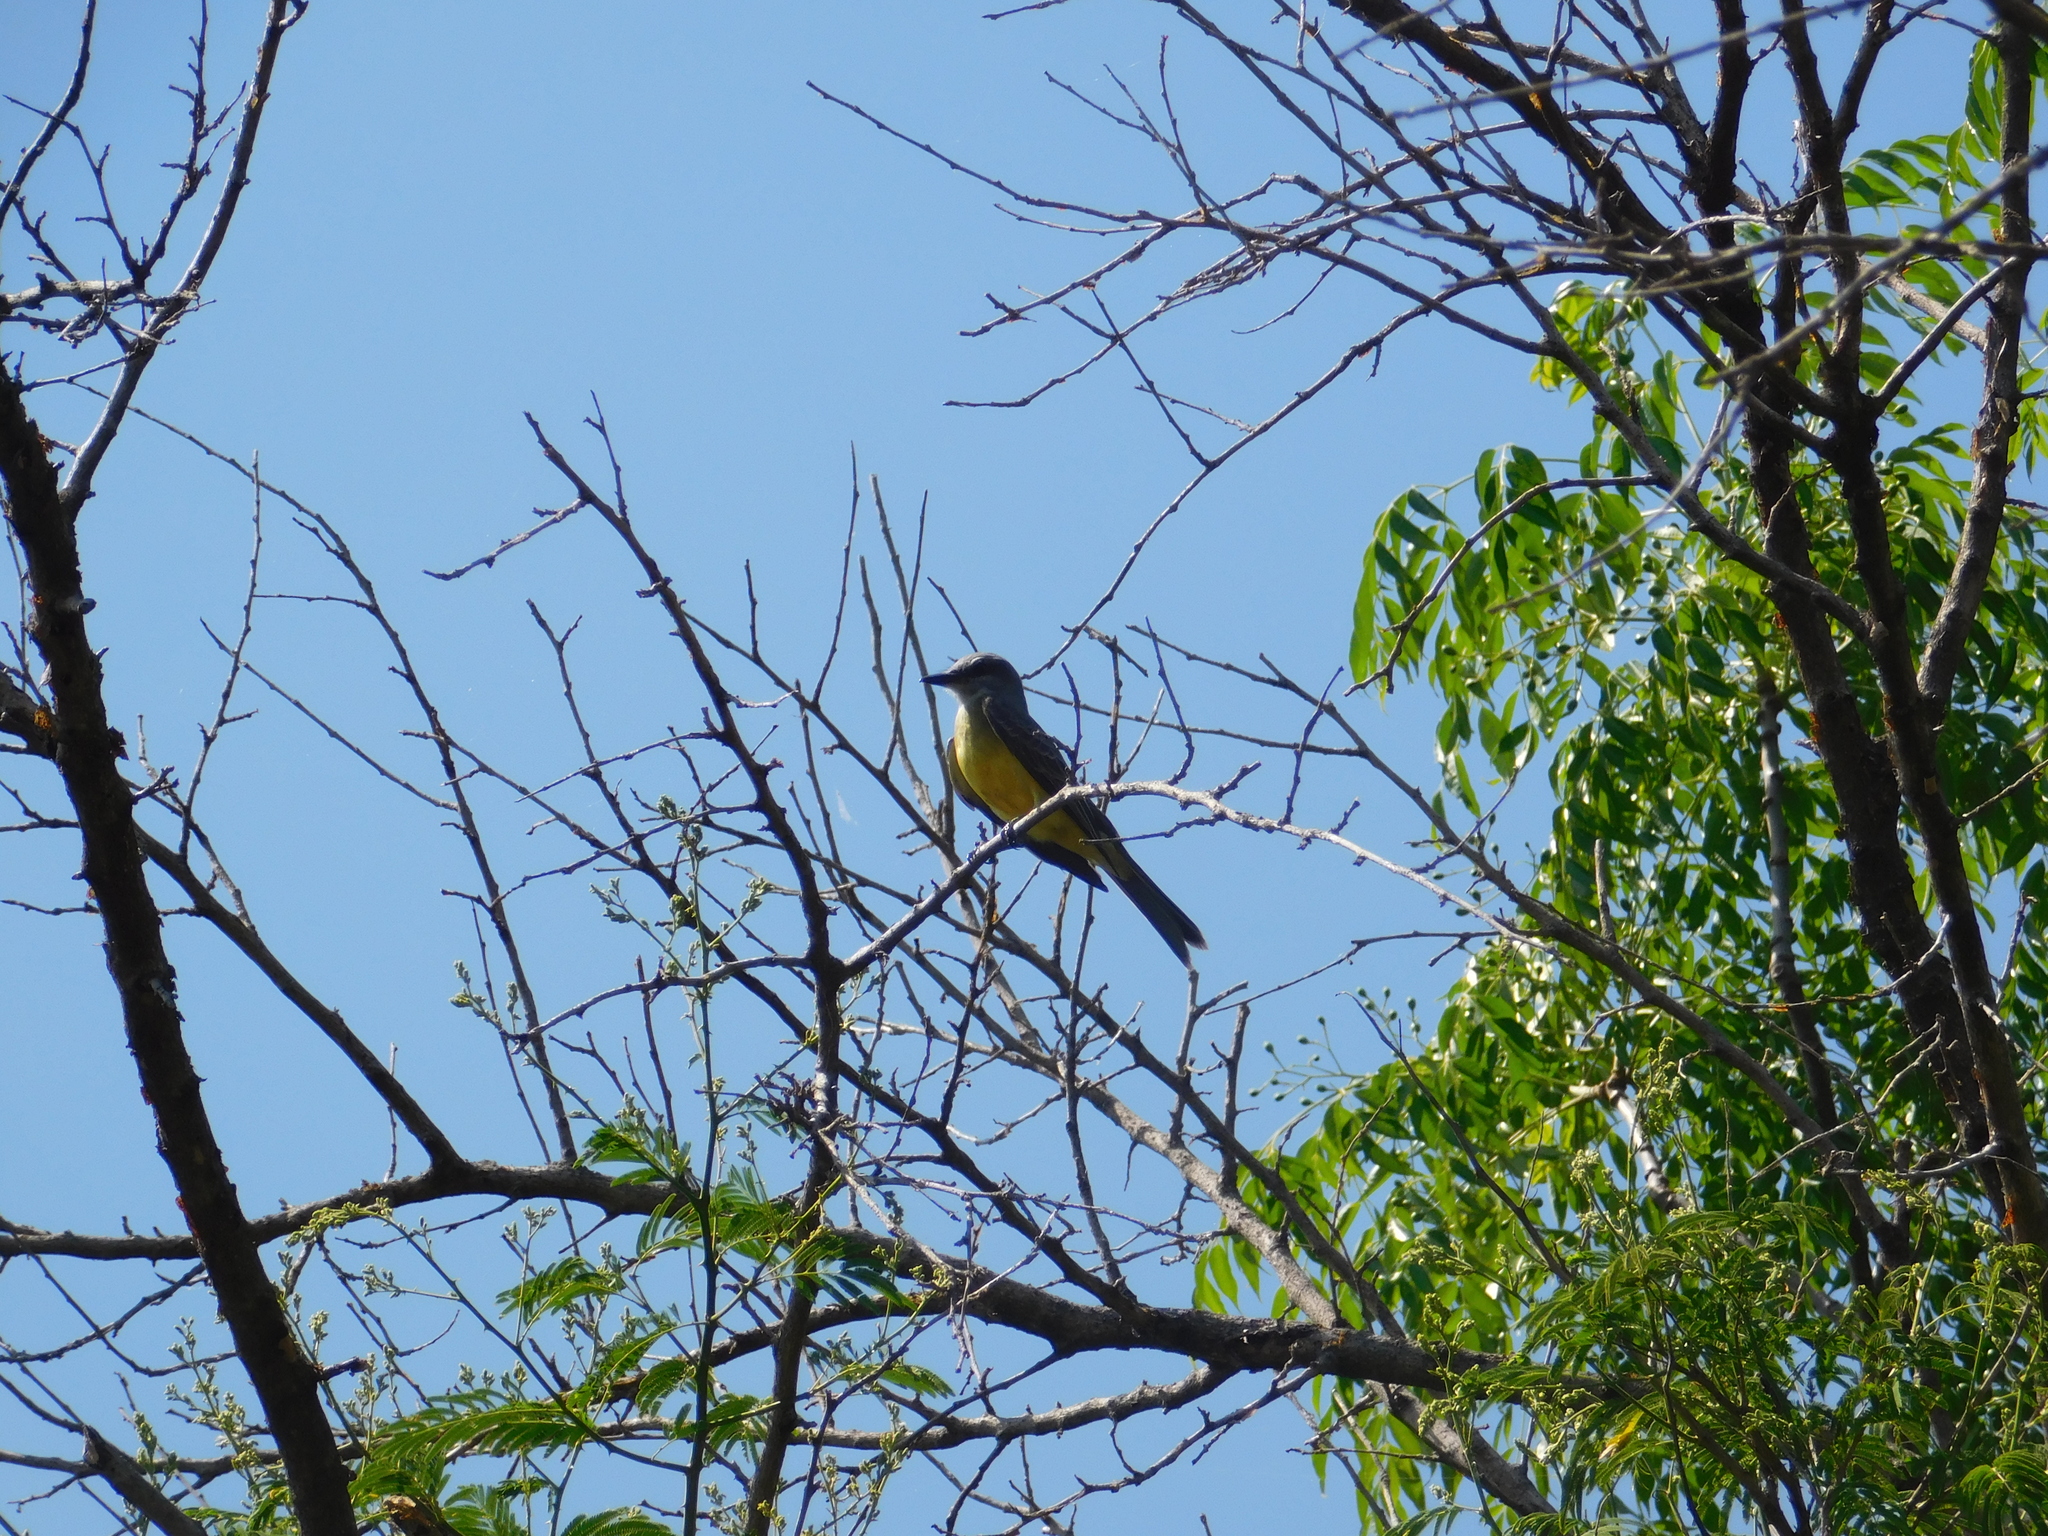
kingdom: Animalia
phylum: Chordata
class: Aves
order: Passeriformes
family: Tyrannidae
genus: Tyrannus
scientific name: Tyrannus melancholicus
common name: Tropical kingbird
